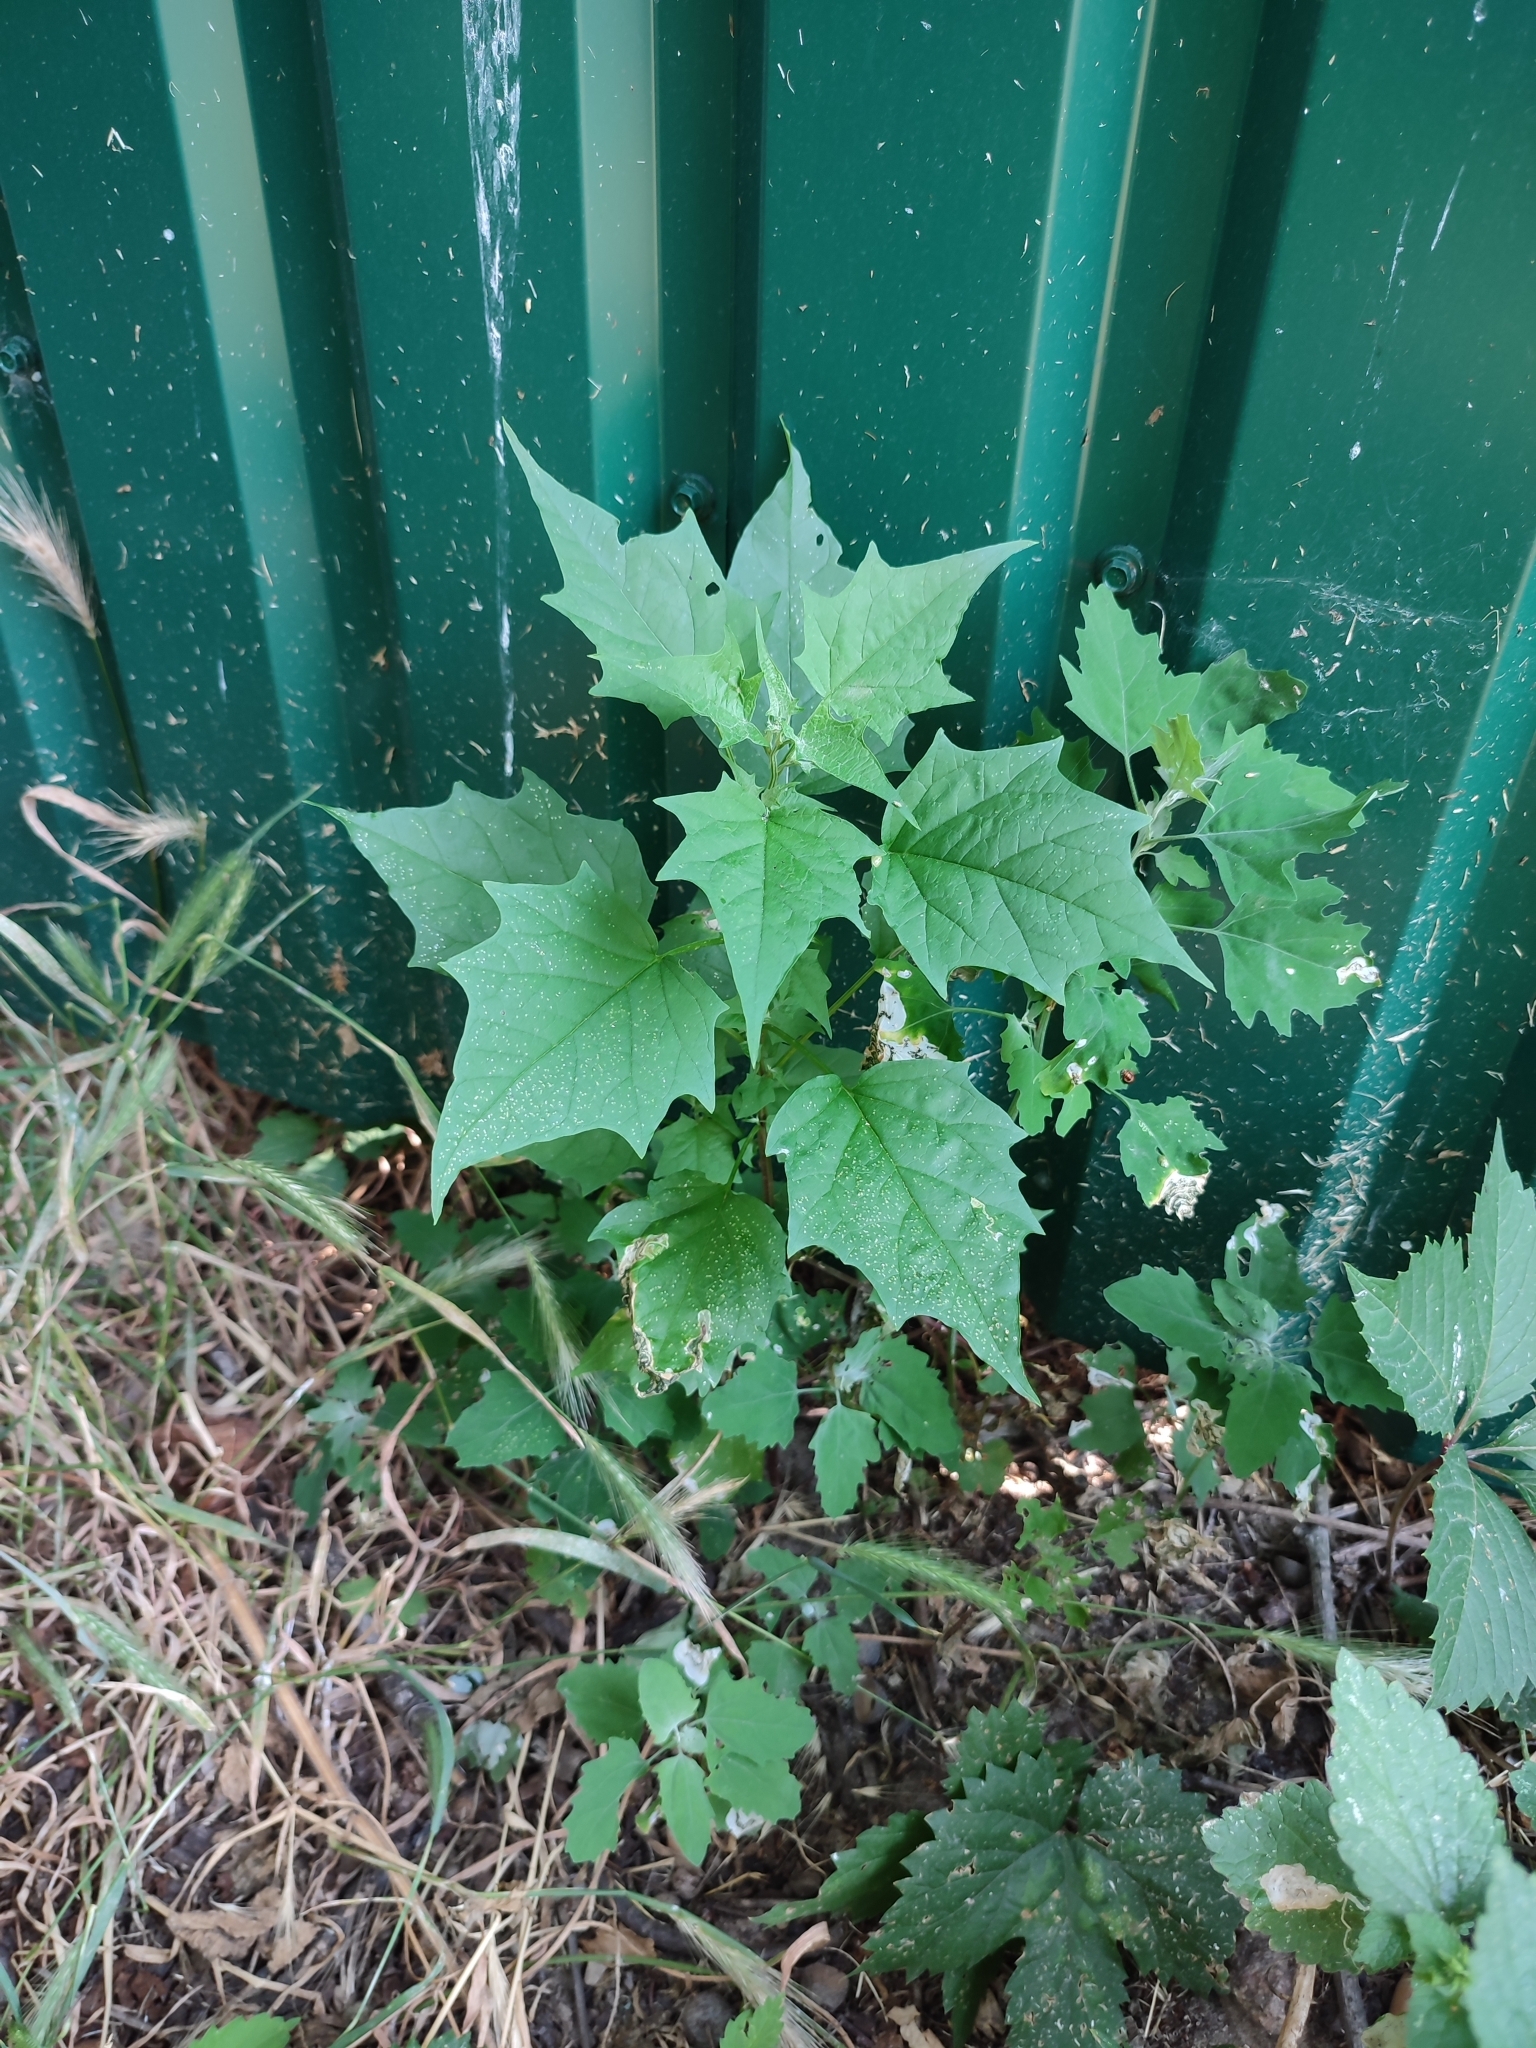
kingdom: Plantae
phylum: Tracheophyta
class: Magnoliopsida
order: Caryophyllales
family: Amaranthaceae
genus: Chenopodiastrum
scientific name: Chenopodiastrum hybridum
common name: Mapleleaf goosefoot
